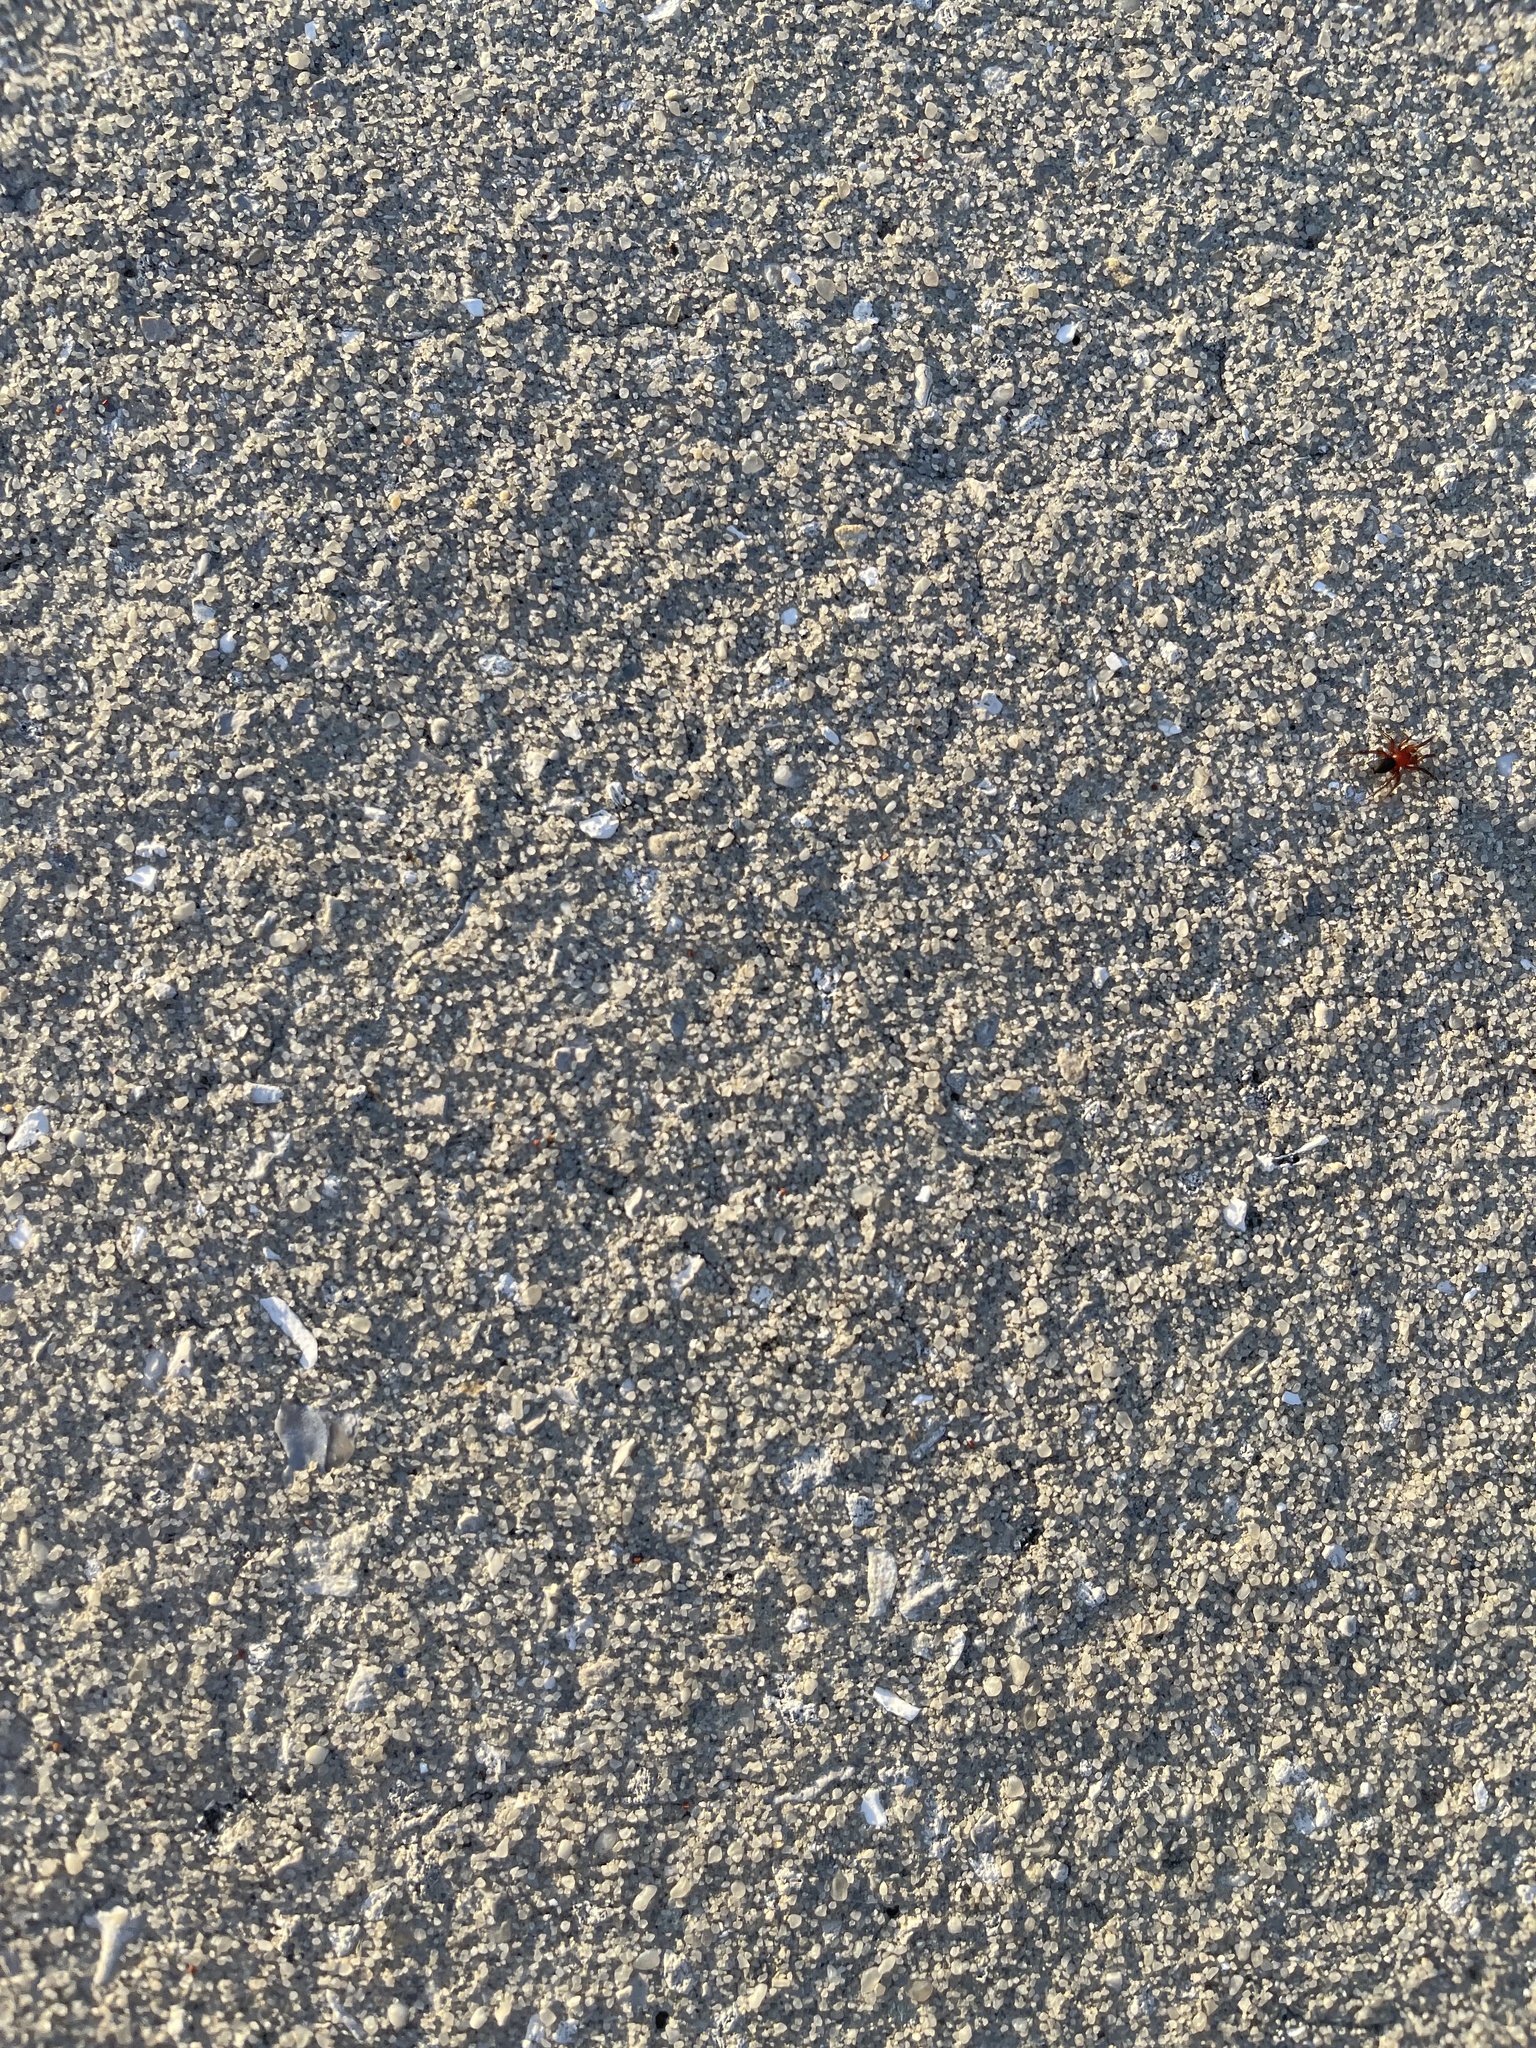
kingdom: Animalia
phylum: Arthropoda
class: Arachnida
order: Araneae
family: Gnaphosidae
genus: Gnaphosa
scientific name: Gnaphosa sericata
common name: Ground spiders
